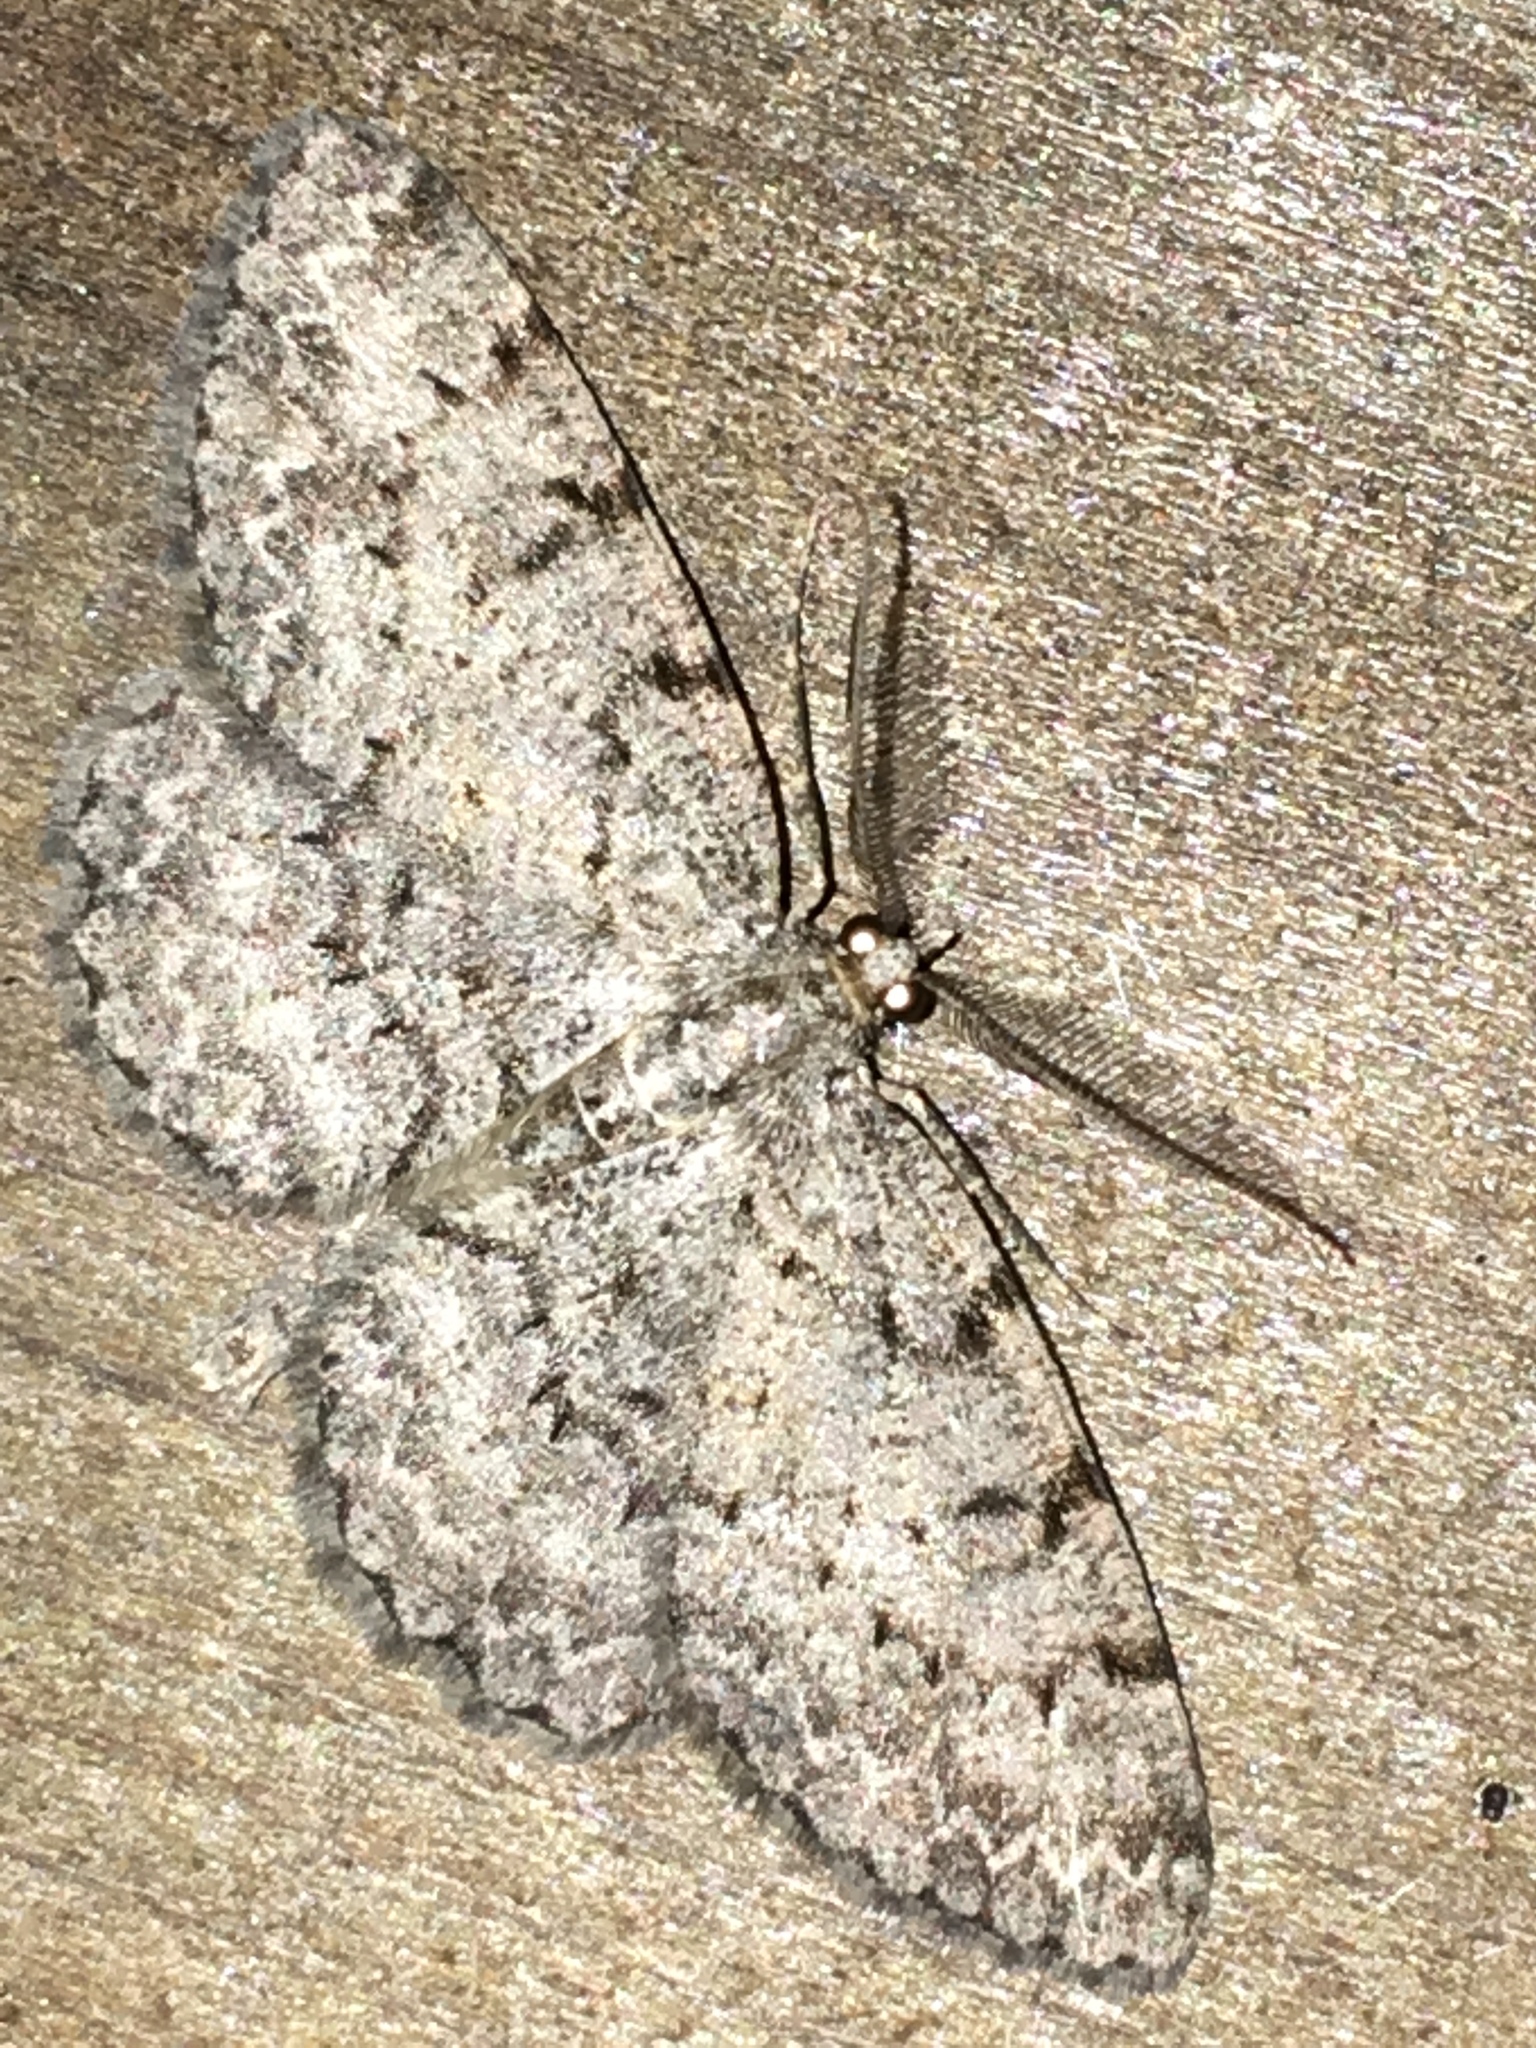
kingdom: Animalia
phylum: Arthropoda
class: Insecta
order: Lepidoptera
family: Geometridae
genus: Protoboarmia
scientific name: Protoboarmia porcelaria
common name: Porcelain gray
